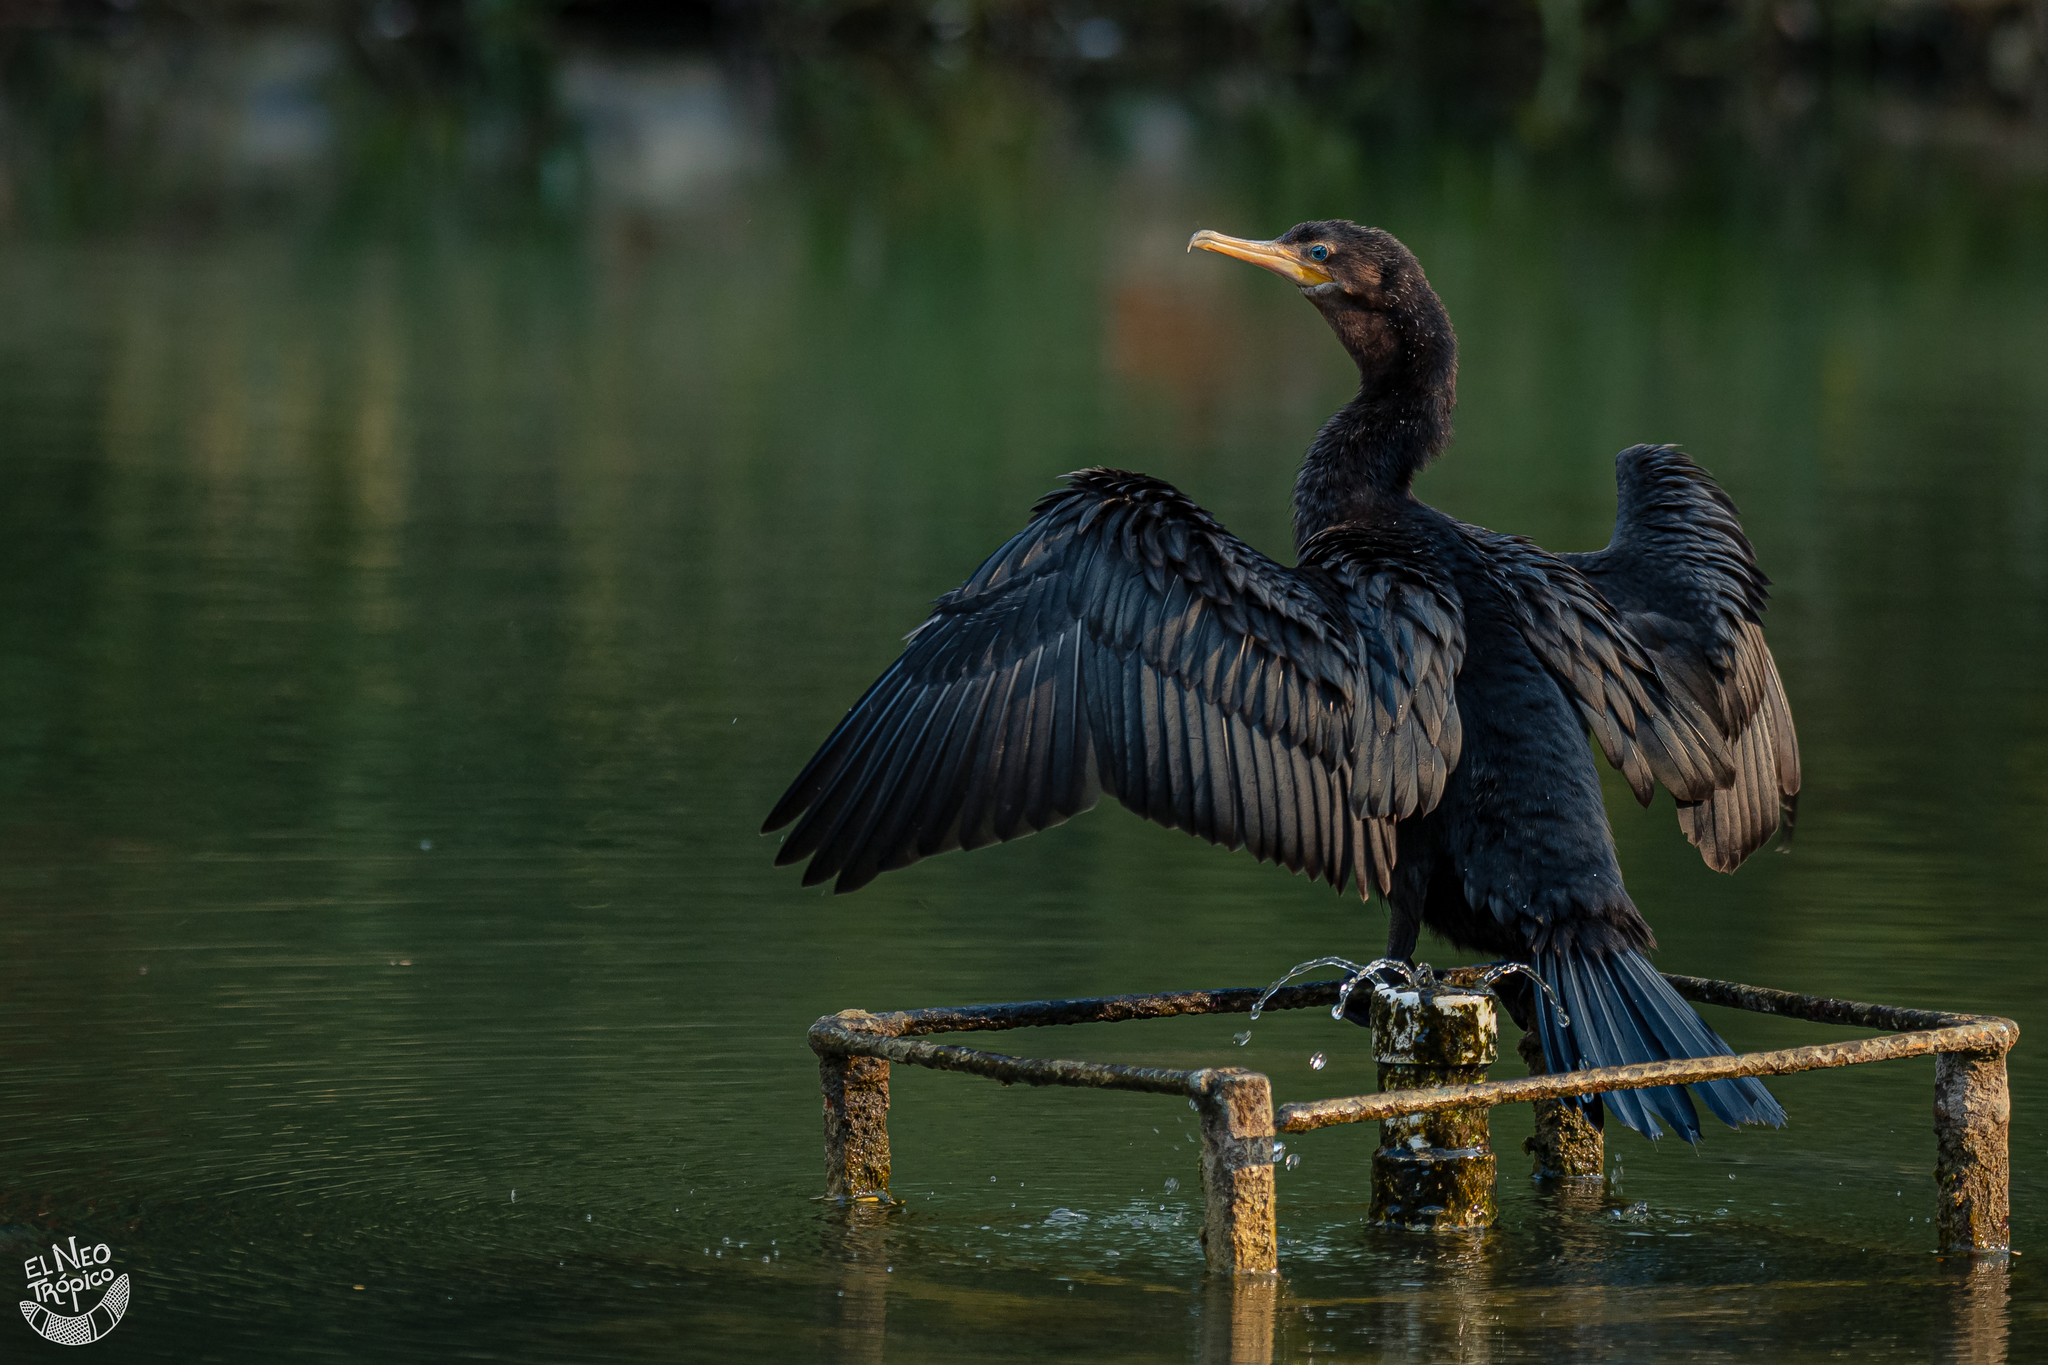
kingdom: Animalia
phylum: Chordata
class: Aves
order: Suliformes
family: Phalacrocoracidae
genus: Phalacrocorax
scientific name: Phalacrocorax brasilianus
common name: Neotropic cormorant
